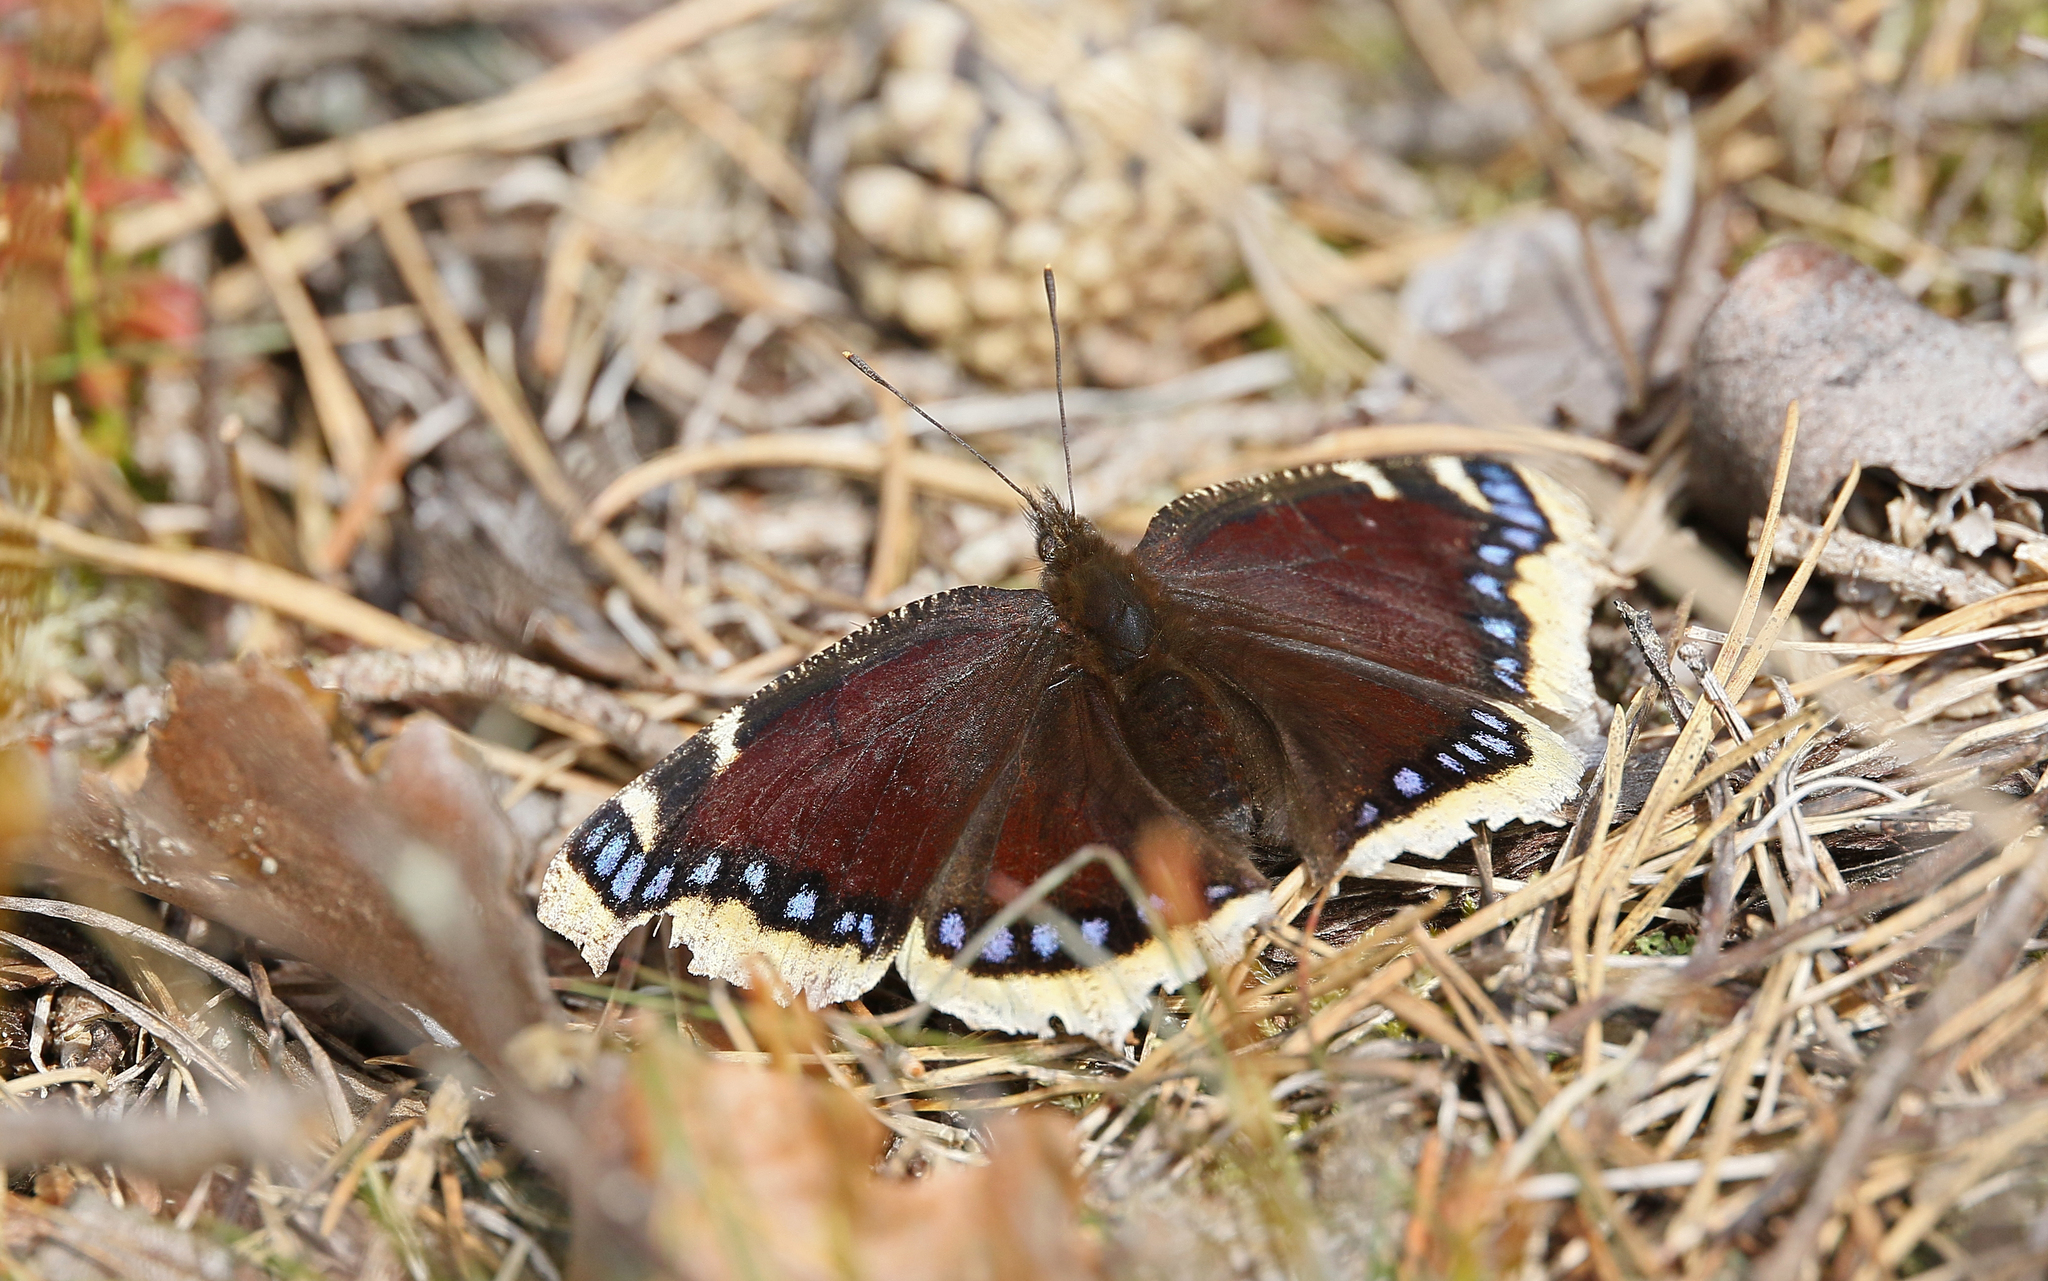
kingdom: Animalia
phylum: Arthropoda
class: Insecta
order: Lepidoptera
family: Nymphalidae
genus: Nymphalis
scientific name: Nymphalis antiopa
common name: Camberwell beauty
